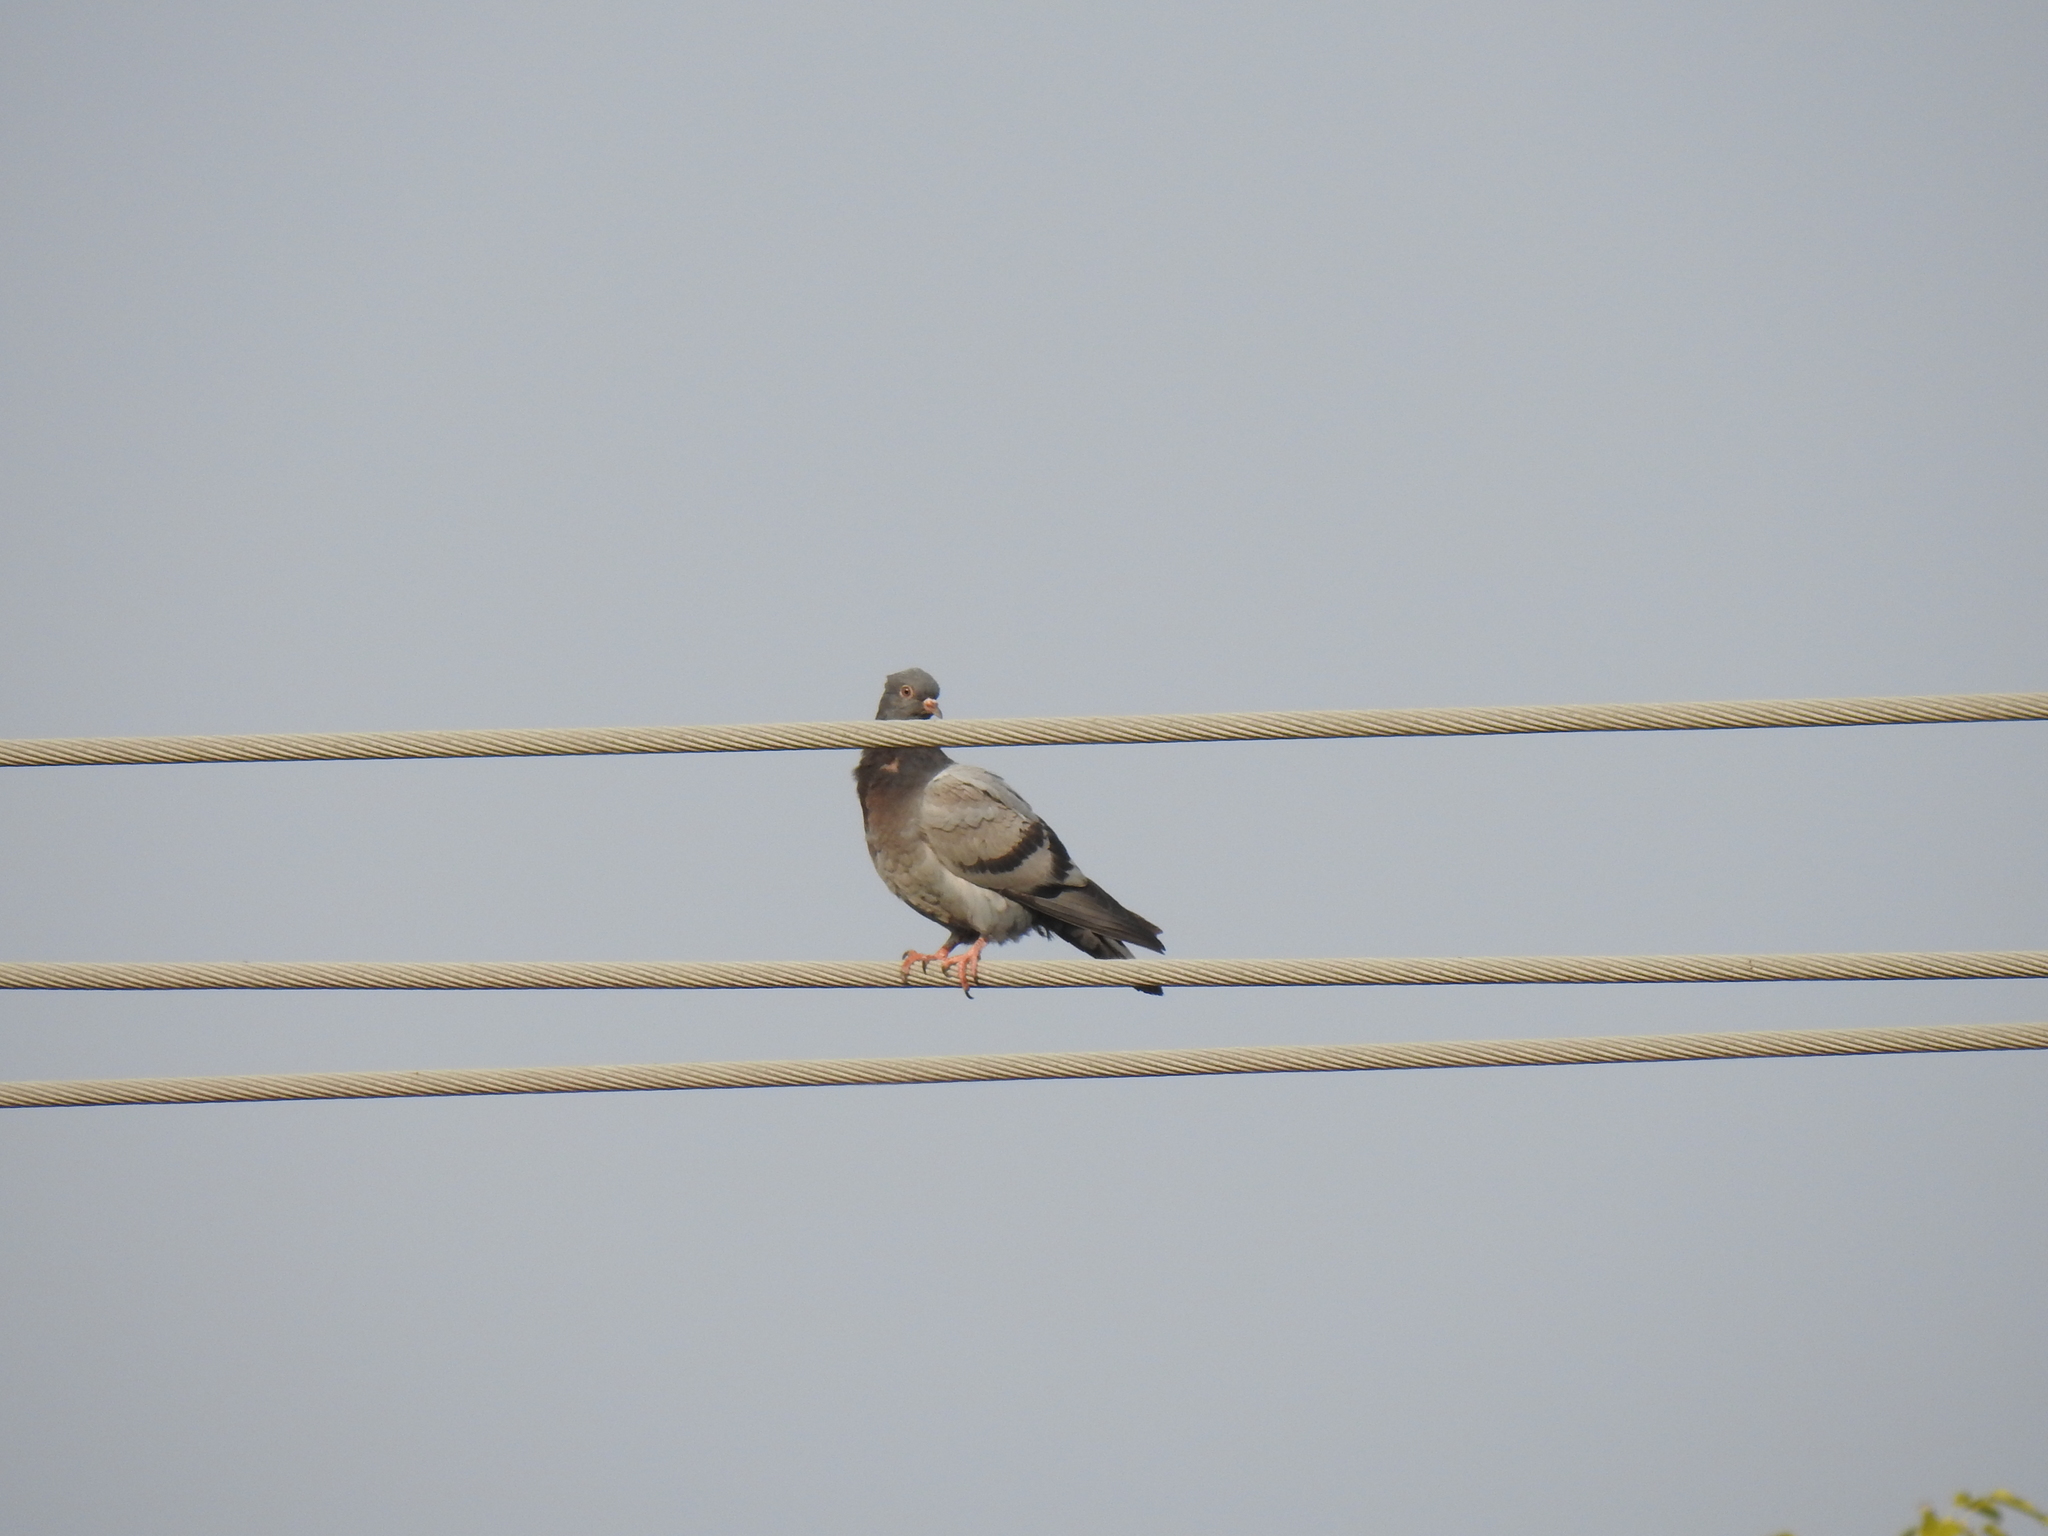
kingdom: Animalia
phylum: Chordata
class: Aves
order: Columbiformes
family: Columbidae
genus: Columba
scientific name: Columba livia
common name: Rock pigeon
